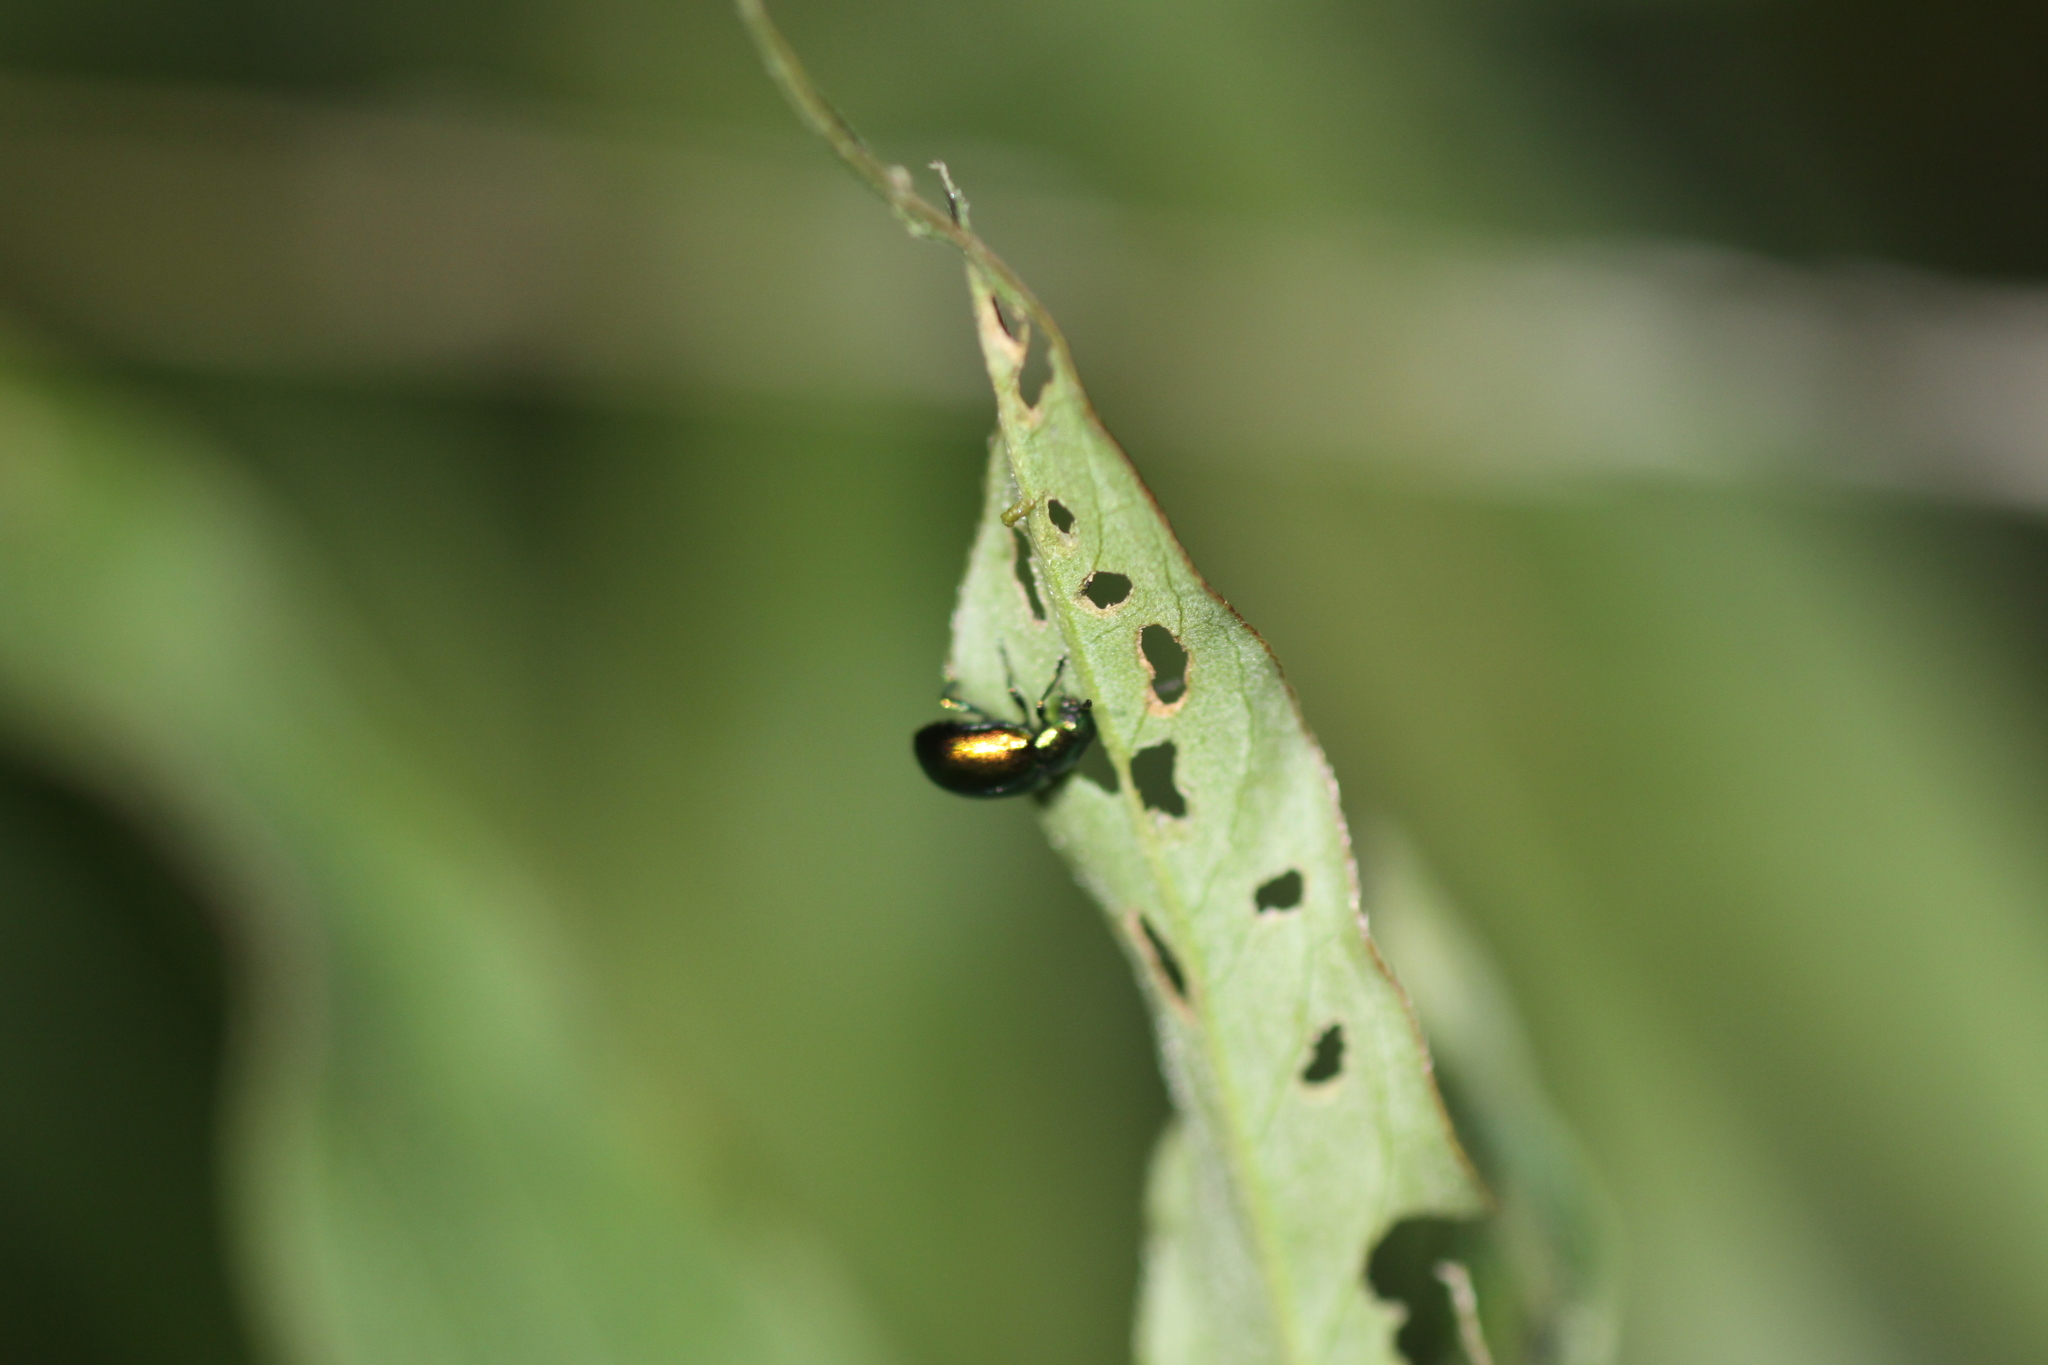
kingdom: Animalia
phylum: Arthropoda
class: Insecta
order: Coleoptera
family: Chrysomelidae
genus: Gastrophysa
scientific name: Gastrophysa viridula
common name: Green dock beetle
